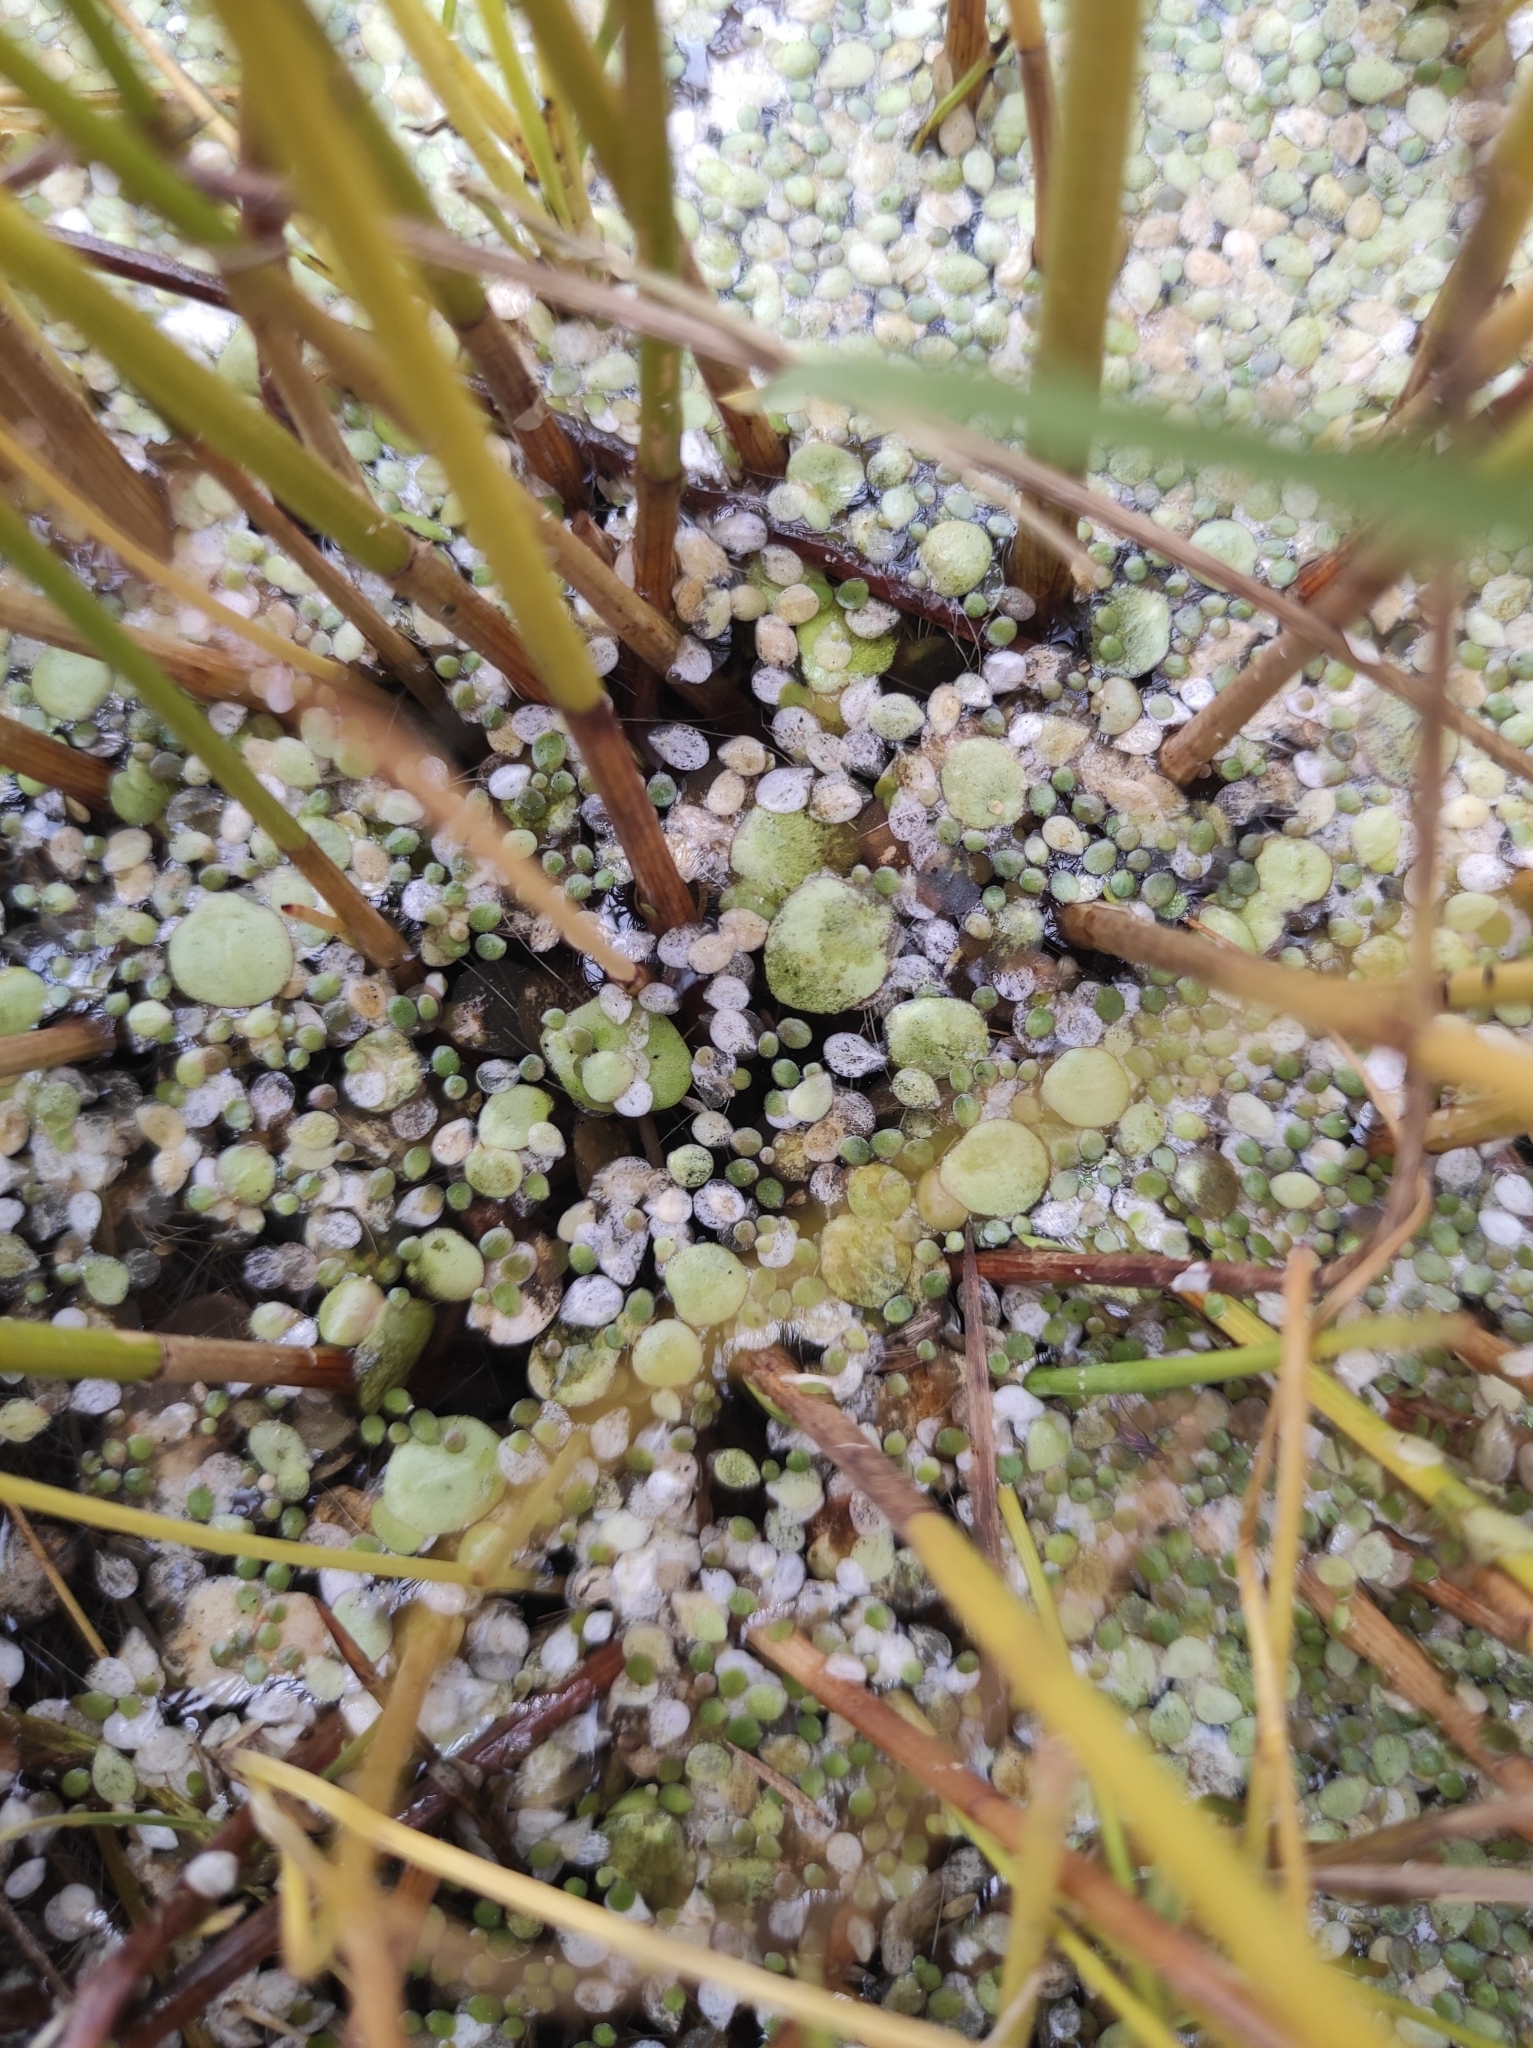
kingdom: Plantae
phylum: Tracheophyta
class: Liliopsida
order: Alismatales
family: Araceae
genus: Spirodela
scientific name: Spirodela polyrhiza
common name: Great duckweed
